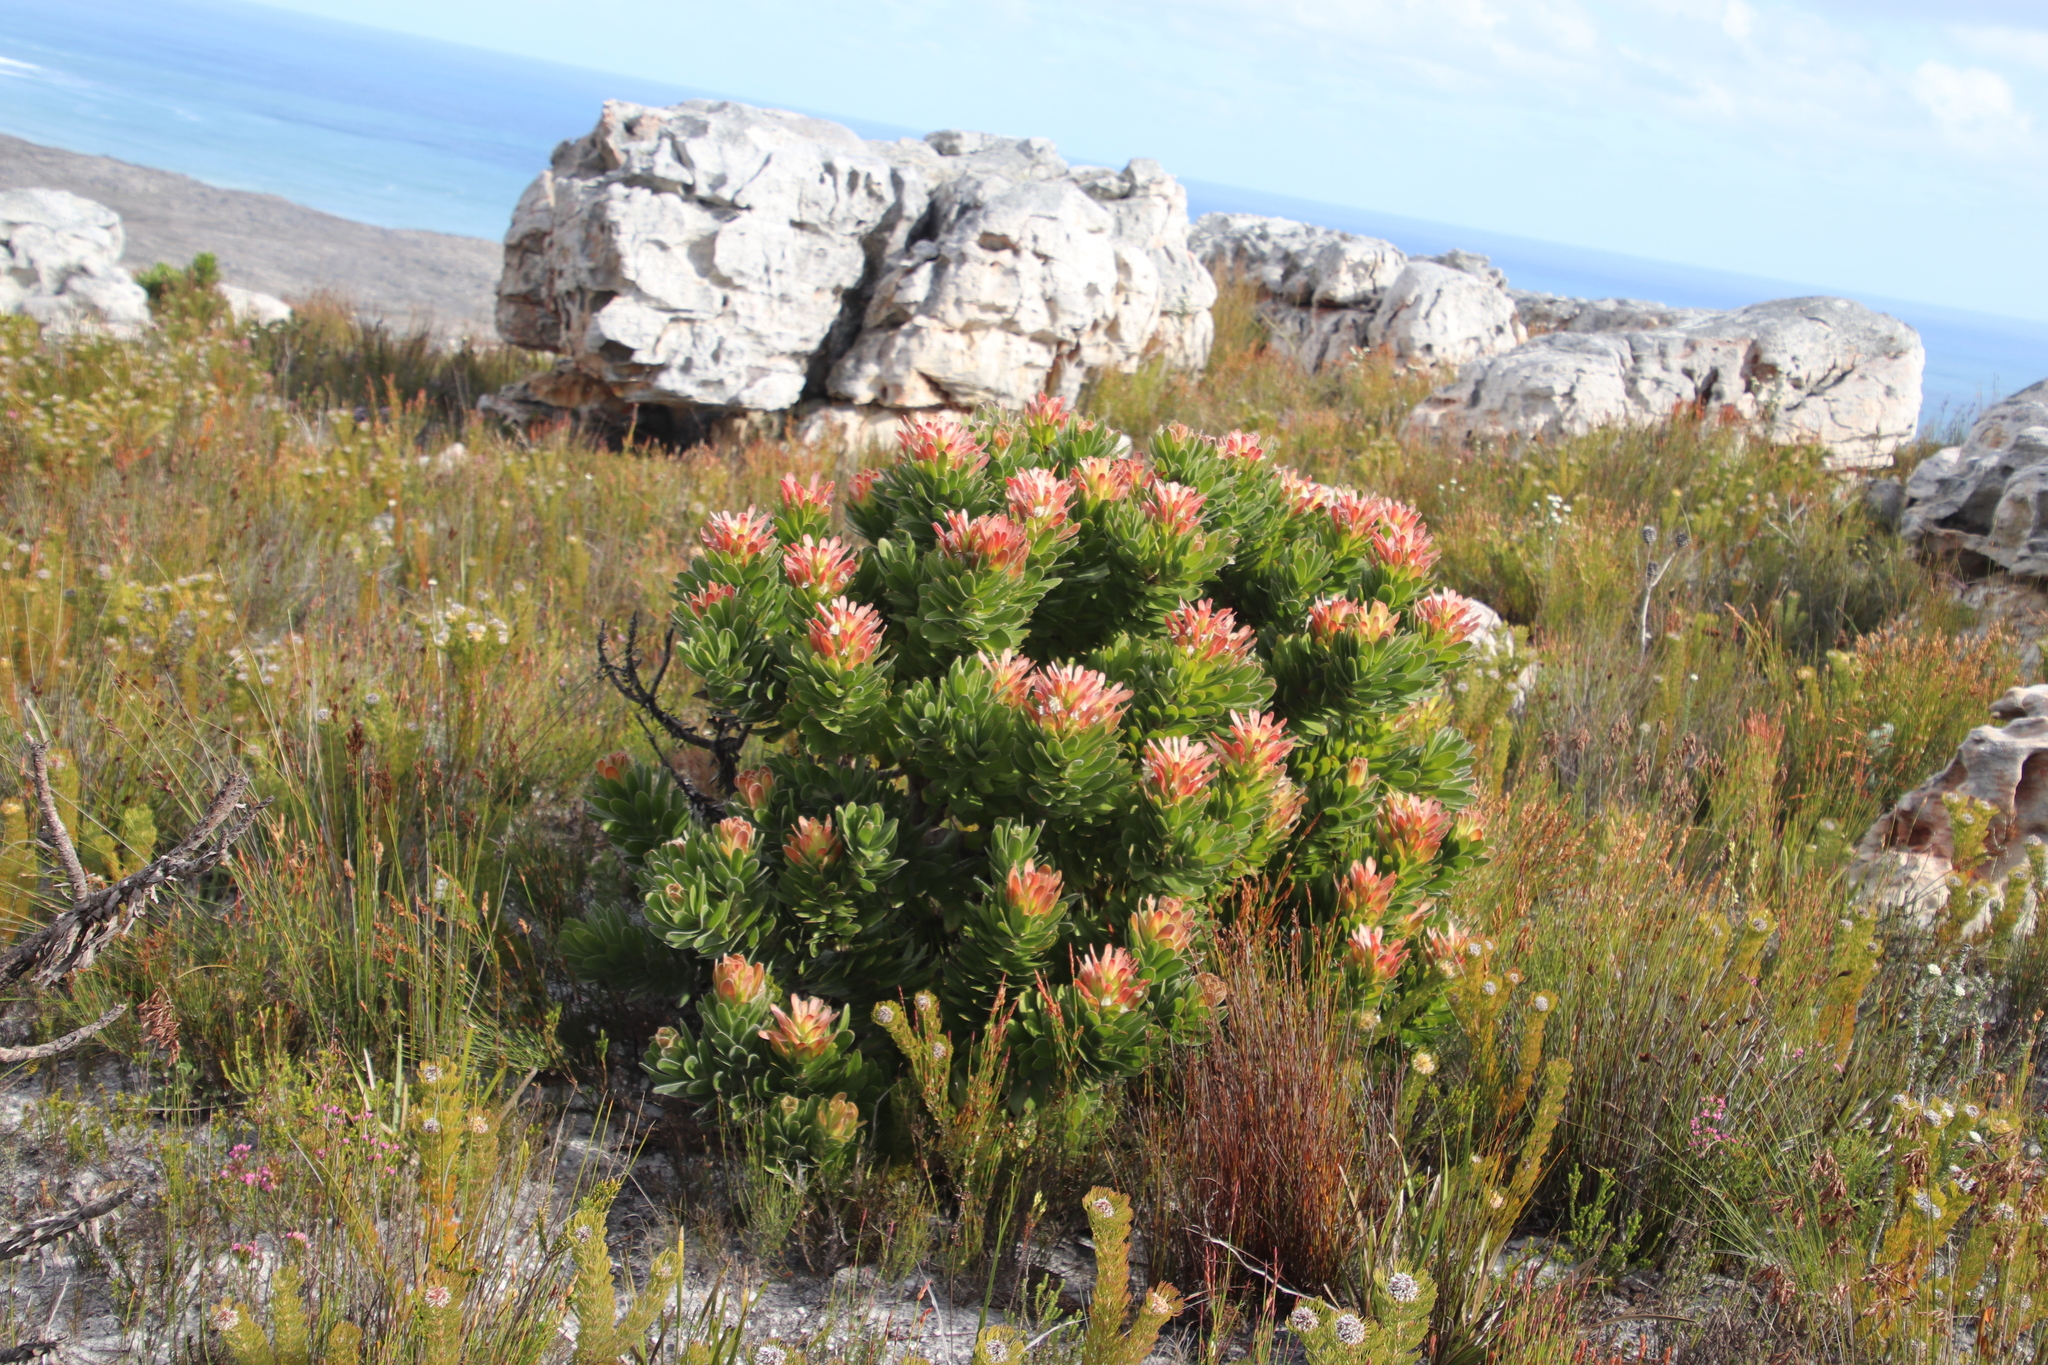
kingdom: Plantae
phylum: Tracheophyta
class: Magnoliopsida
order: Proteales
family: Proteaceae
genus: Mimetes
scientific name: Mimetes fimbriifolius
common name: Fringed bottlebrush
